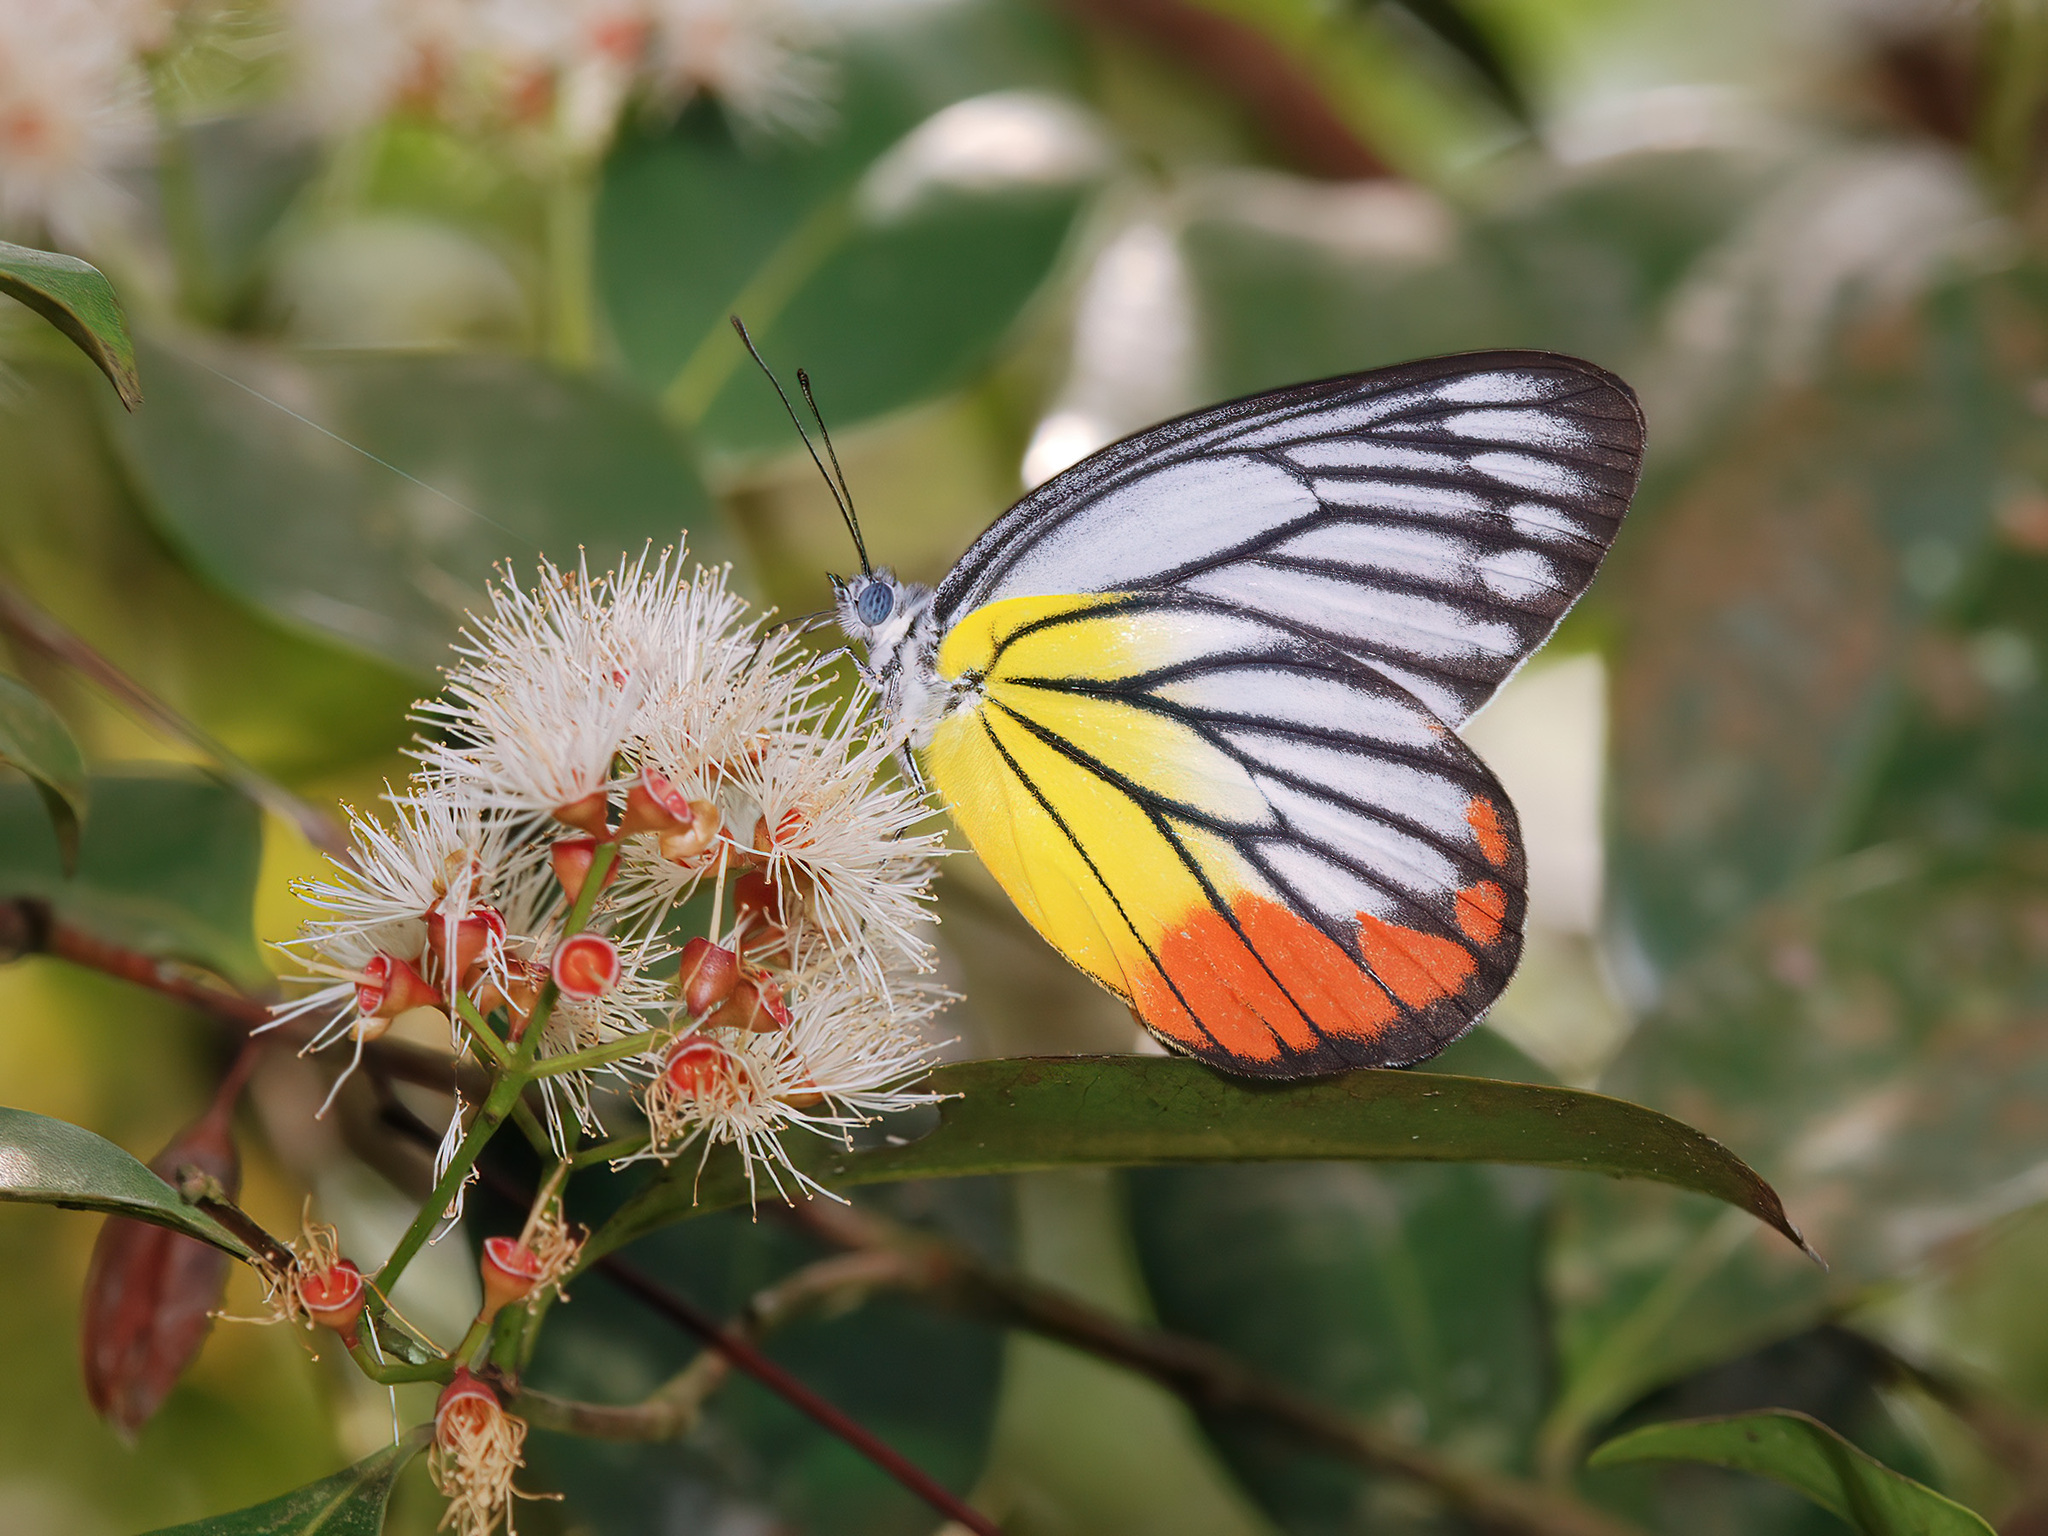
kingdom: Animalia
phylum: Arthropoda
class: Insecta
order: Lepidoptera
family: Pieridae
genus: Delias
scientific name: Delias hyparete
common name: Painted jezebel
